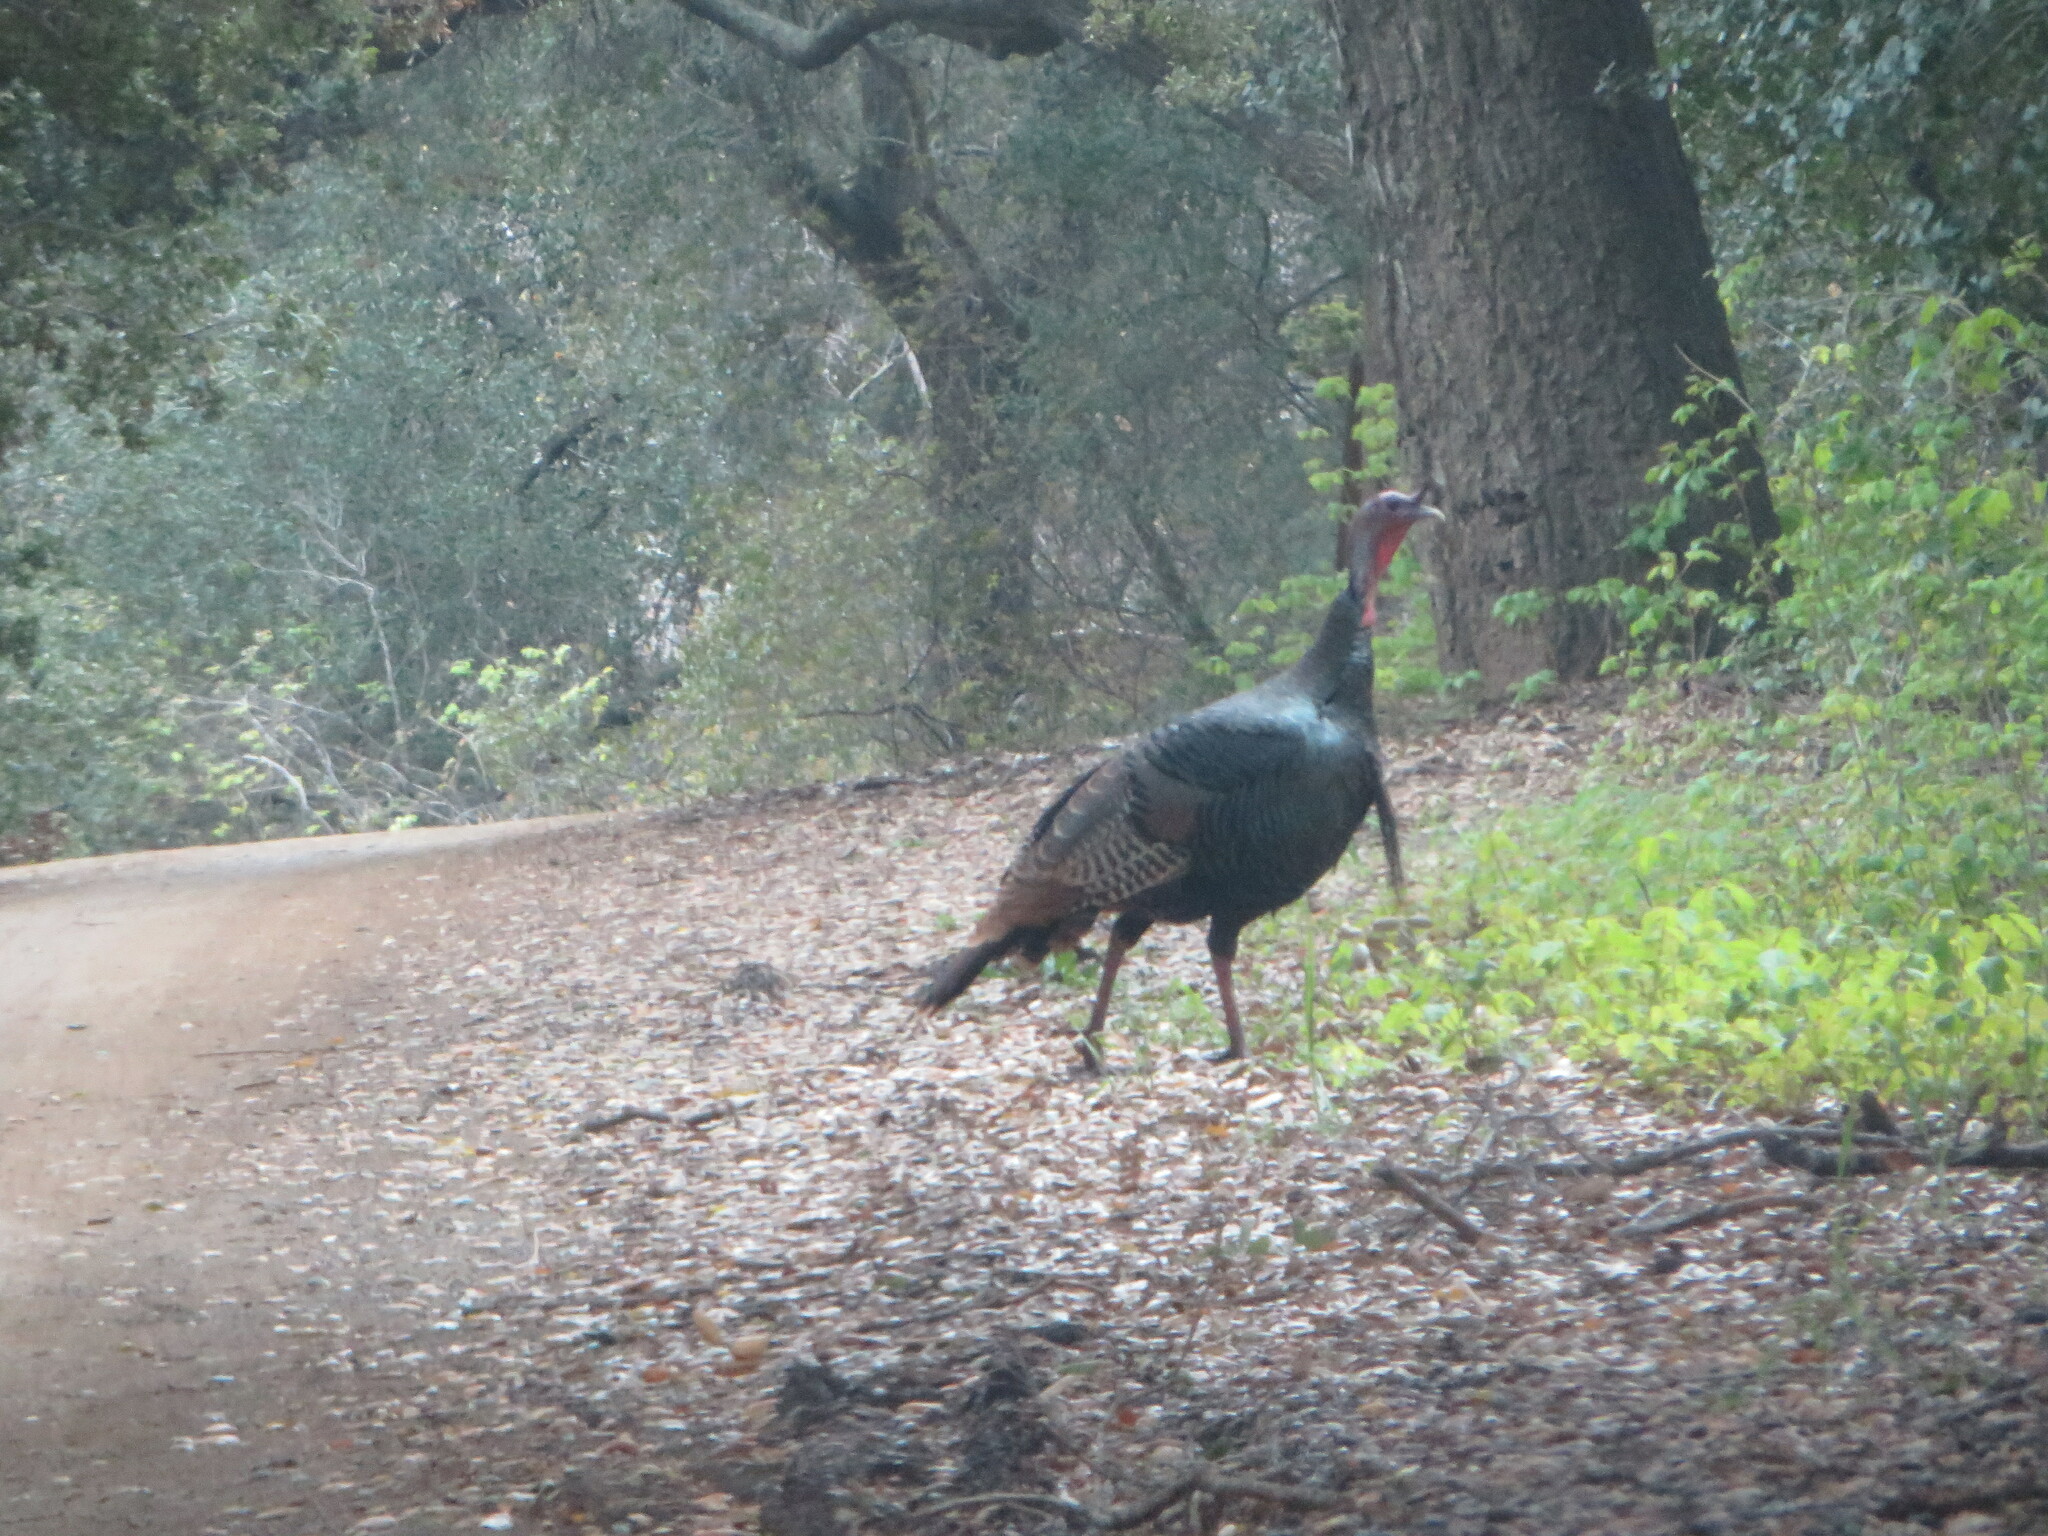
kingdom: Animalia
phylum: Chordata
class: Aves
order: Galliformes
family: Phasianidae
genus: Meleagris
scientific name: Meleagris gallopavo
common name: Wild turkey
